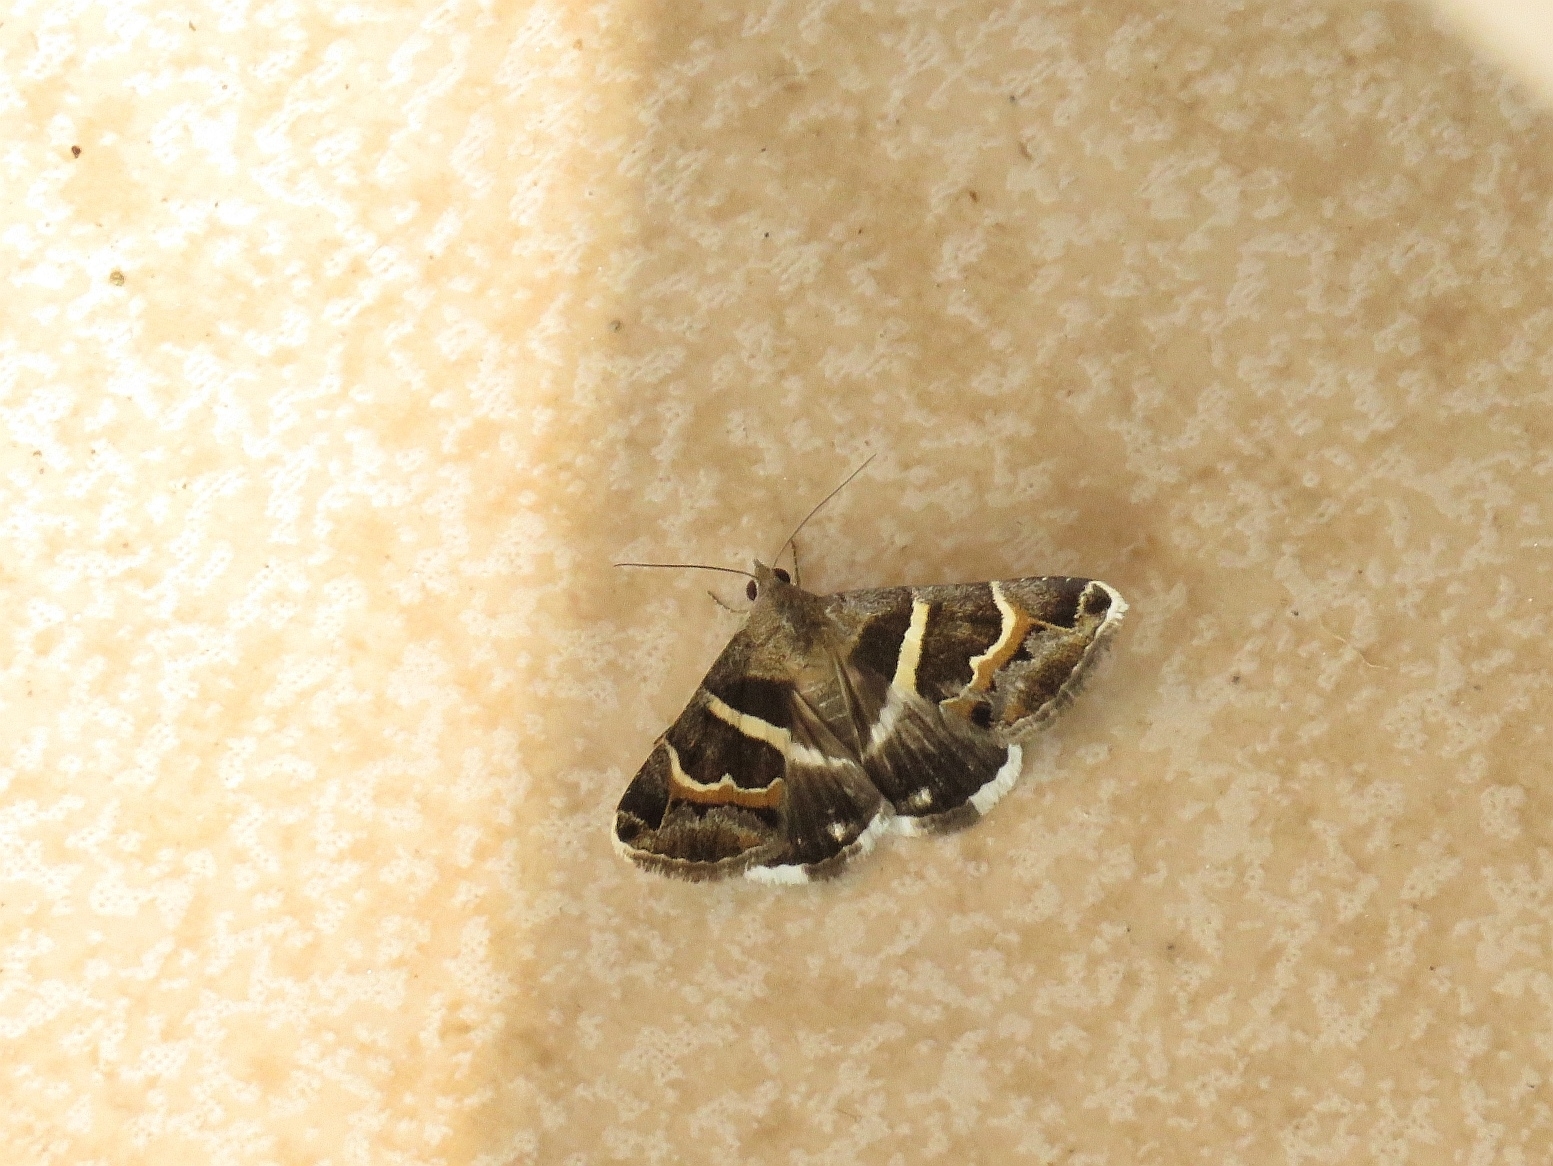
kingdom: Animalia
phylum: Arthropoda
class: Insecta
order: Lepidoptera
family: Erebidae
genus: Grammodes
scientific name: Grammodes stolida
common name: Geometrician
